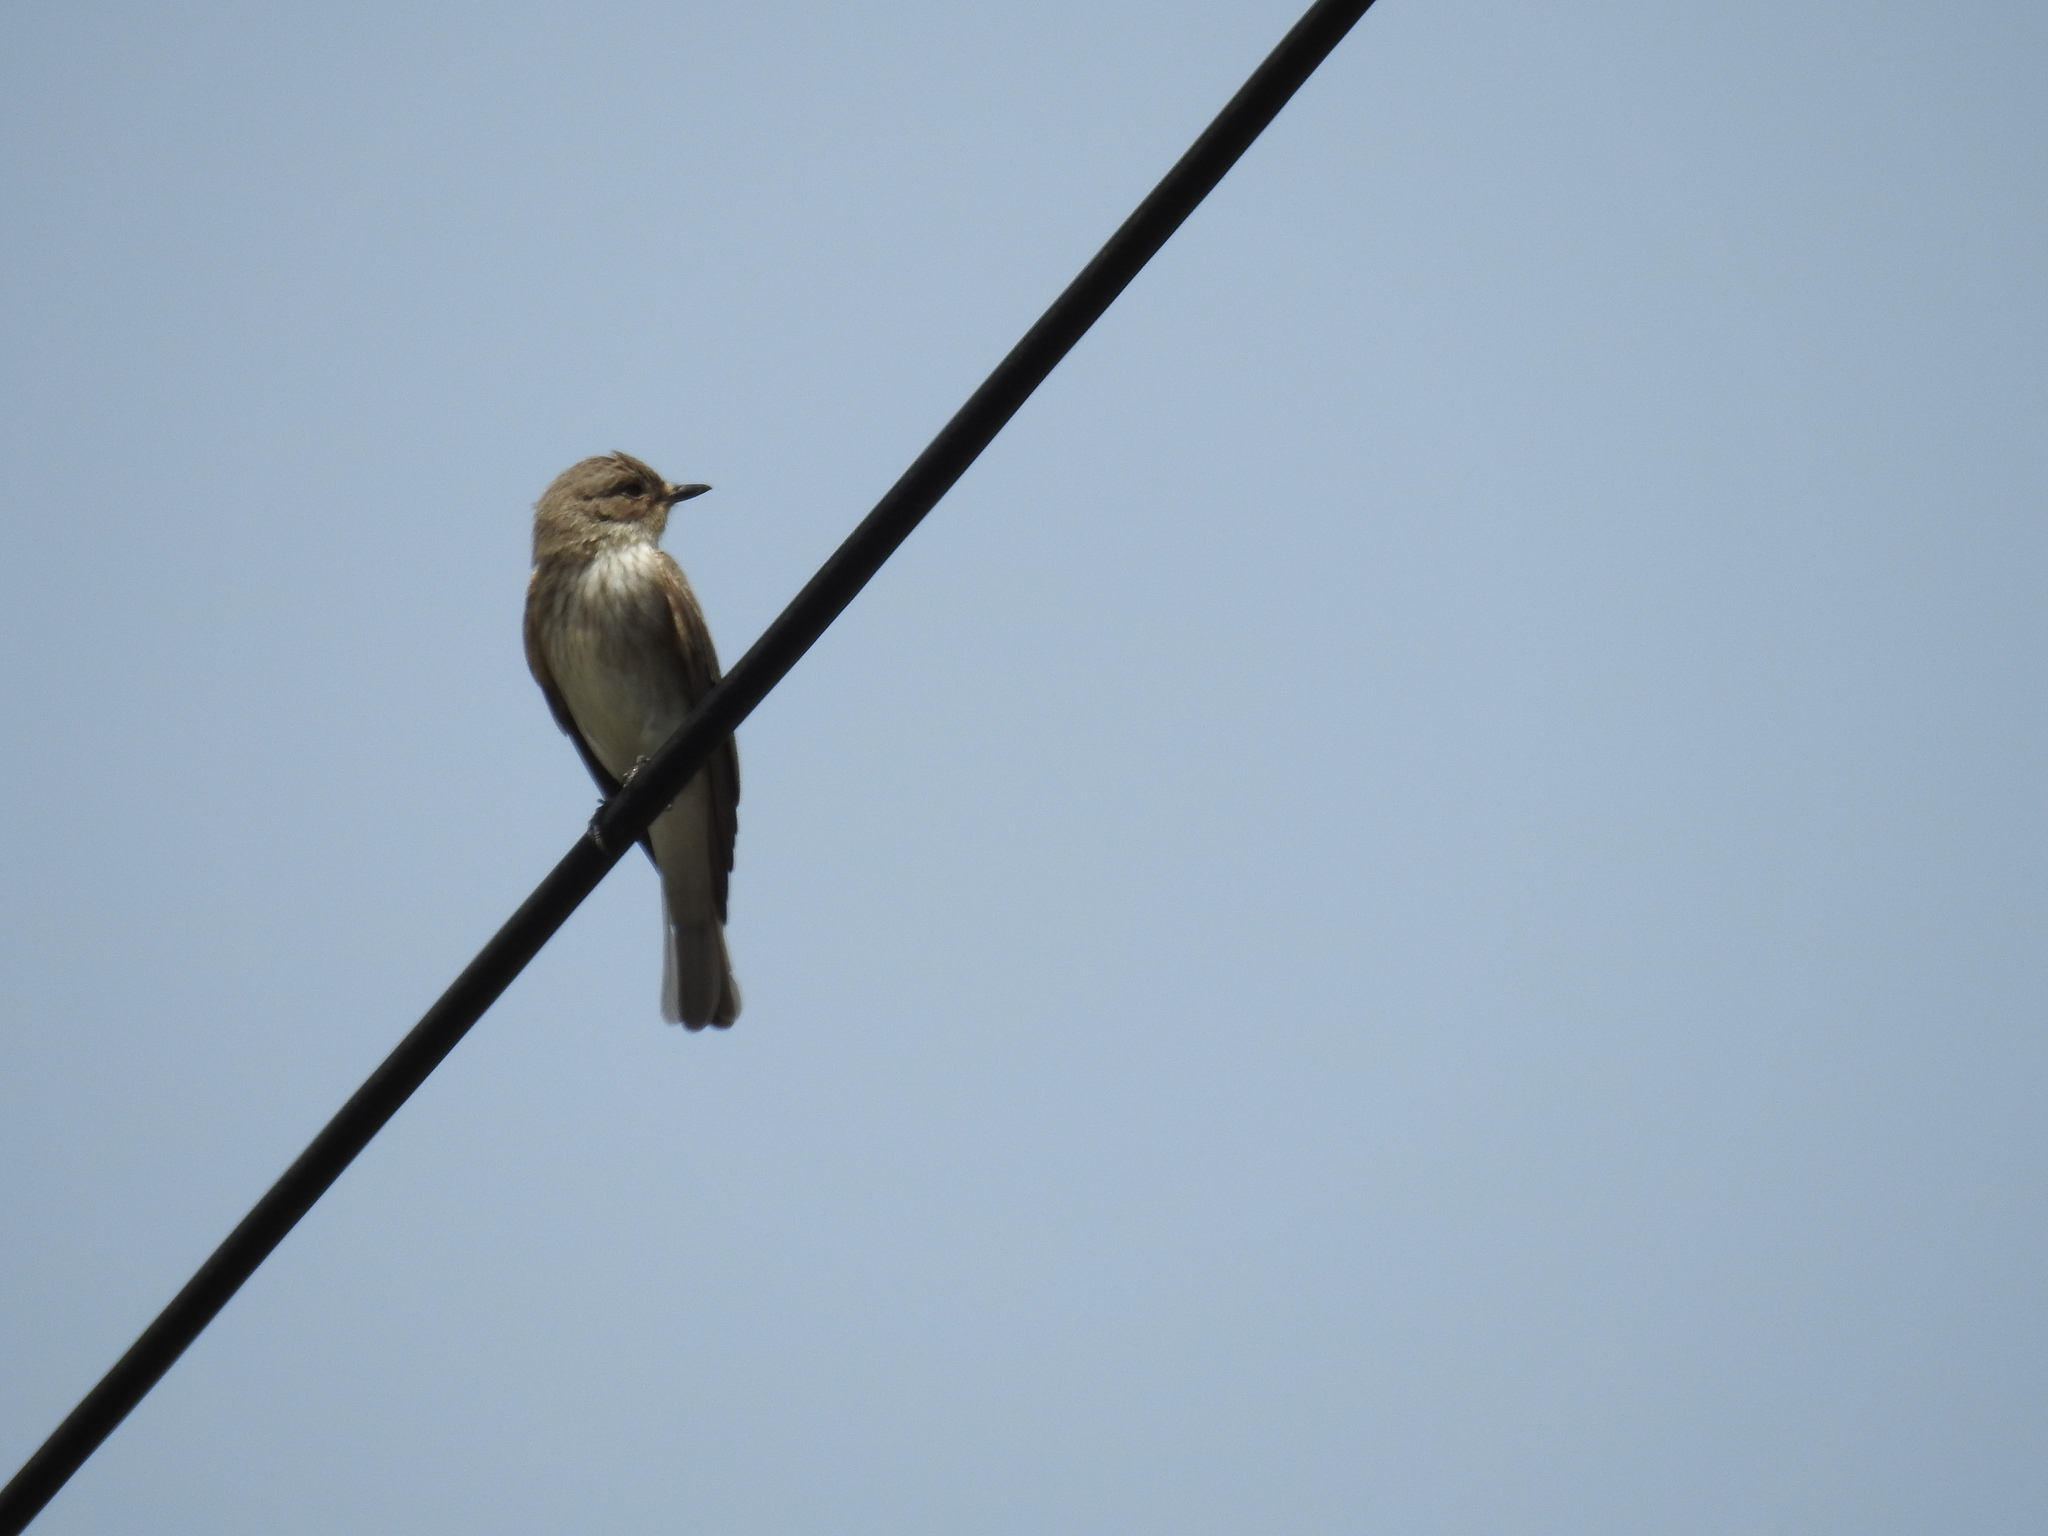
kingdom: Animalia
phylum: Chordata
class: Aves
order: Passeriformes
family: Muscicapidae
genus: Muscicapa
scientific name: Muscicapa striata
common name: Spotted flycatcher
